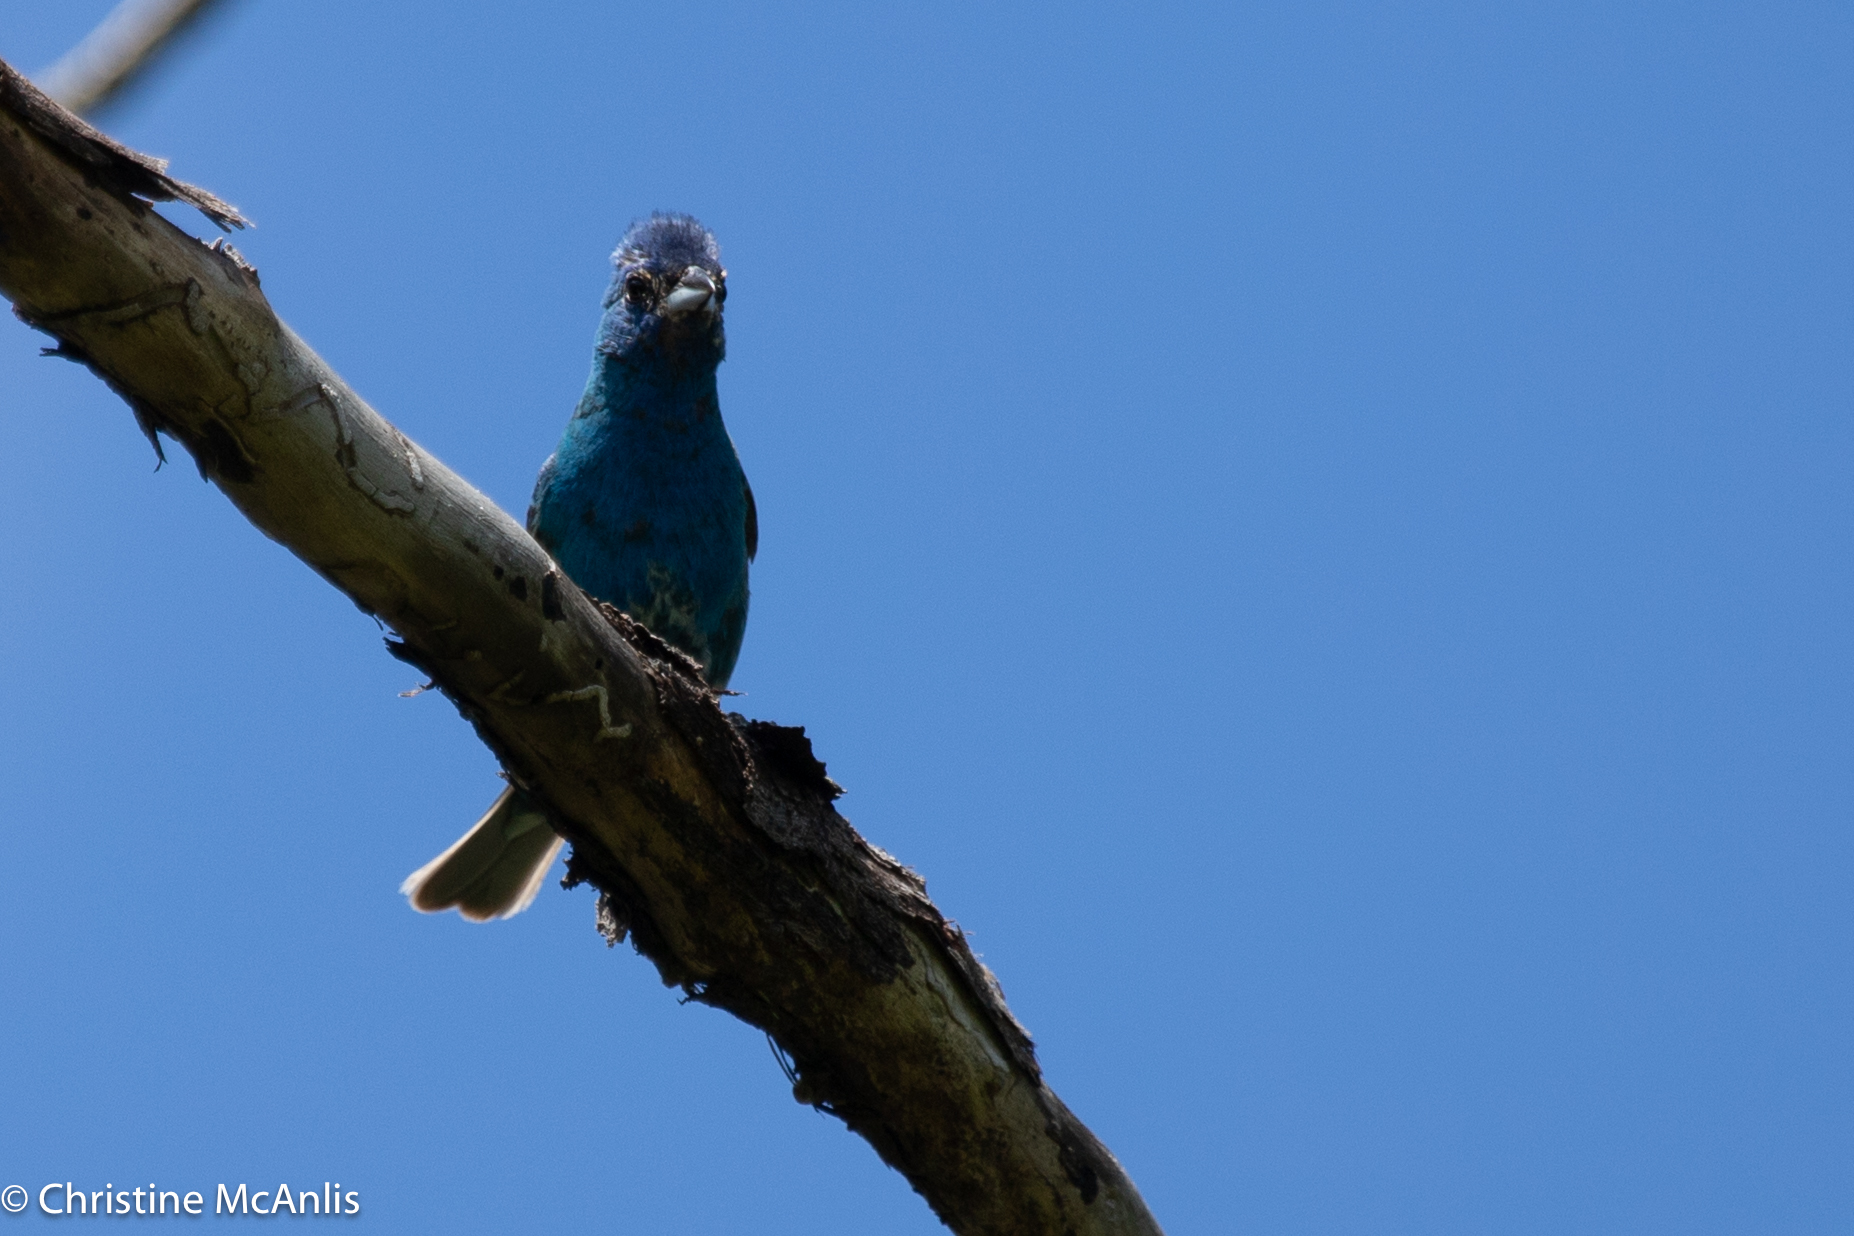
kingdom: Animalia
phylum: Chordata
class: Aves
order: Passeriformes
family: Cardinalidae
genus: Passerina
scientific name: Passerina cyanea
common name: Indigo bunting
